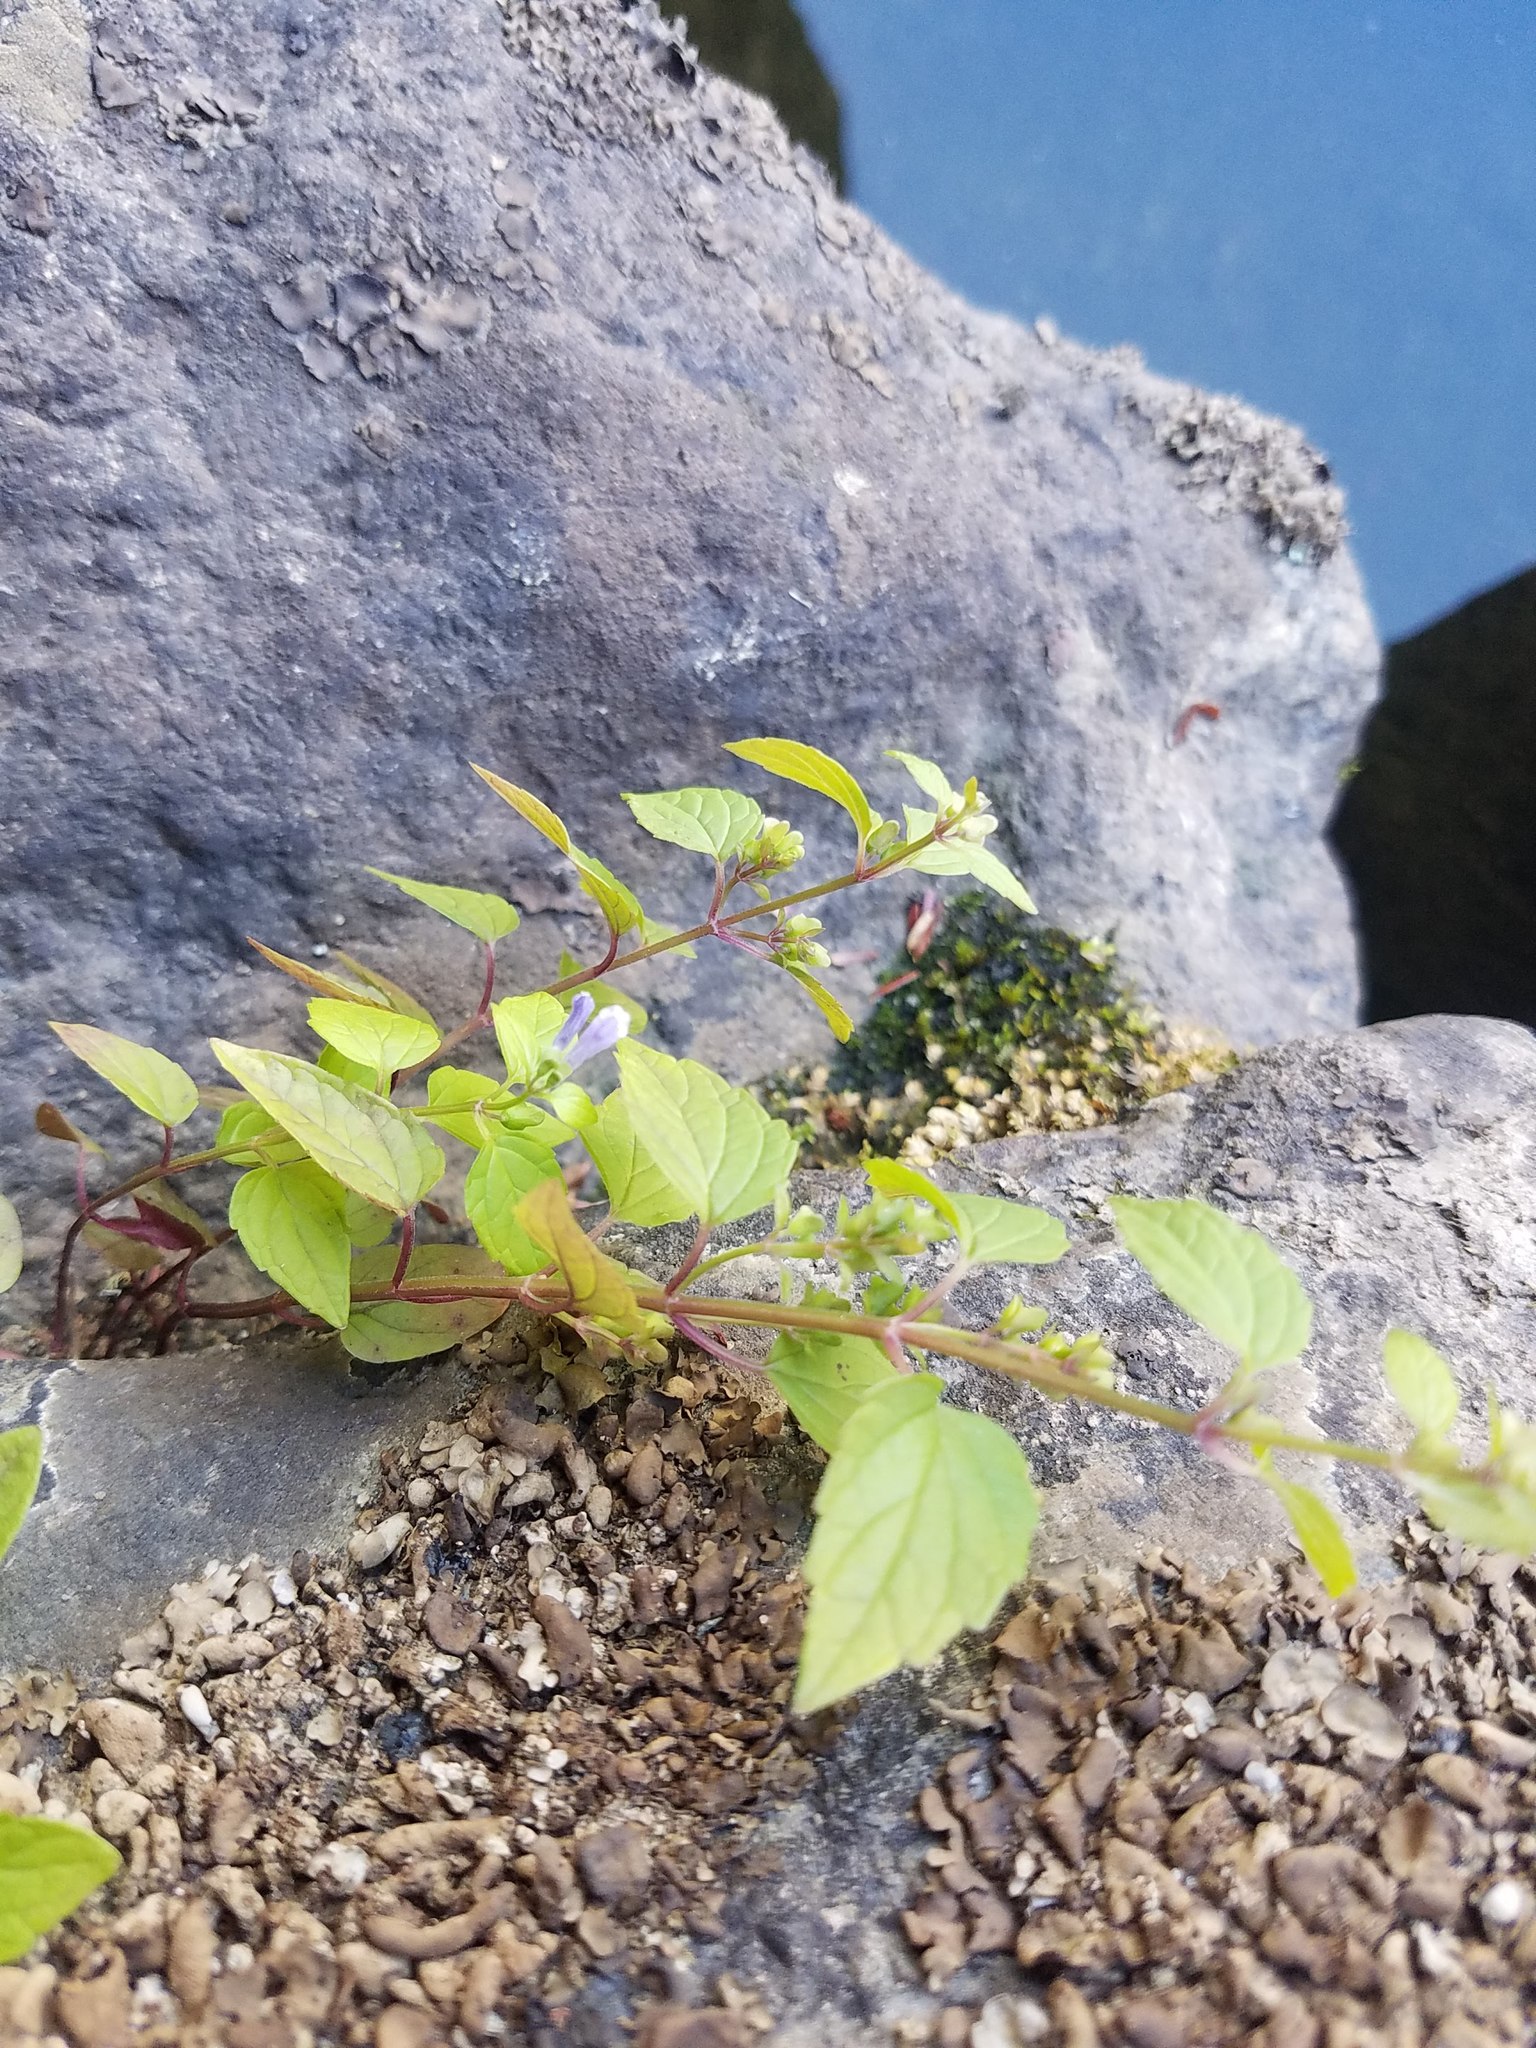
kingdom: Plantae
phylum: Tracheophyta
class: Magnoliopsida
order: Lamiales
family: Lamiaceae
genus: Scutellaria
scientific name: Scutellaria lateriflora
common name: Blue skullcap
